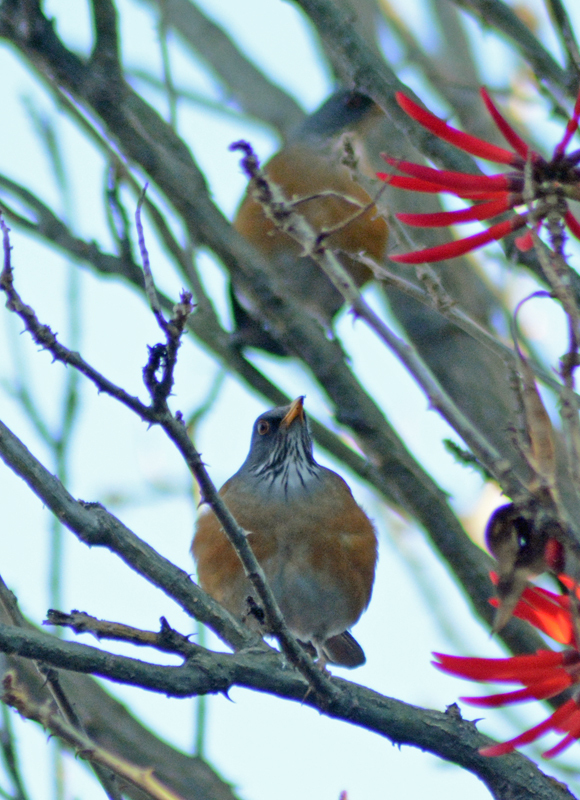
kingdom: Animalia
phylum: Chordata
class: Aves
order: Passeriformes
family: Turdidae
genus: Turdus
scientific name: Turdus rufopalliatus
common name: Rufous-backed robin
